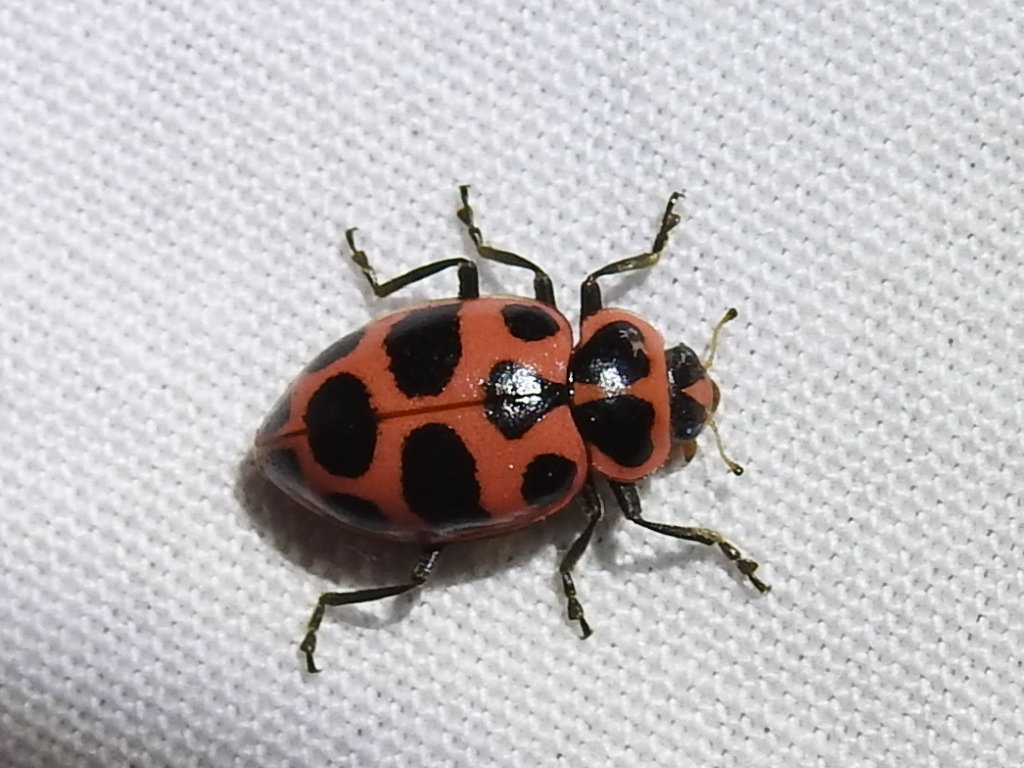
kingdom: Animalia
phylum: Arthropoda
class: Insecta
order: Coleoptera
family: Coccinellidae
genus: Coleomegilla
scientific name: Coleomegilla maculata
